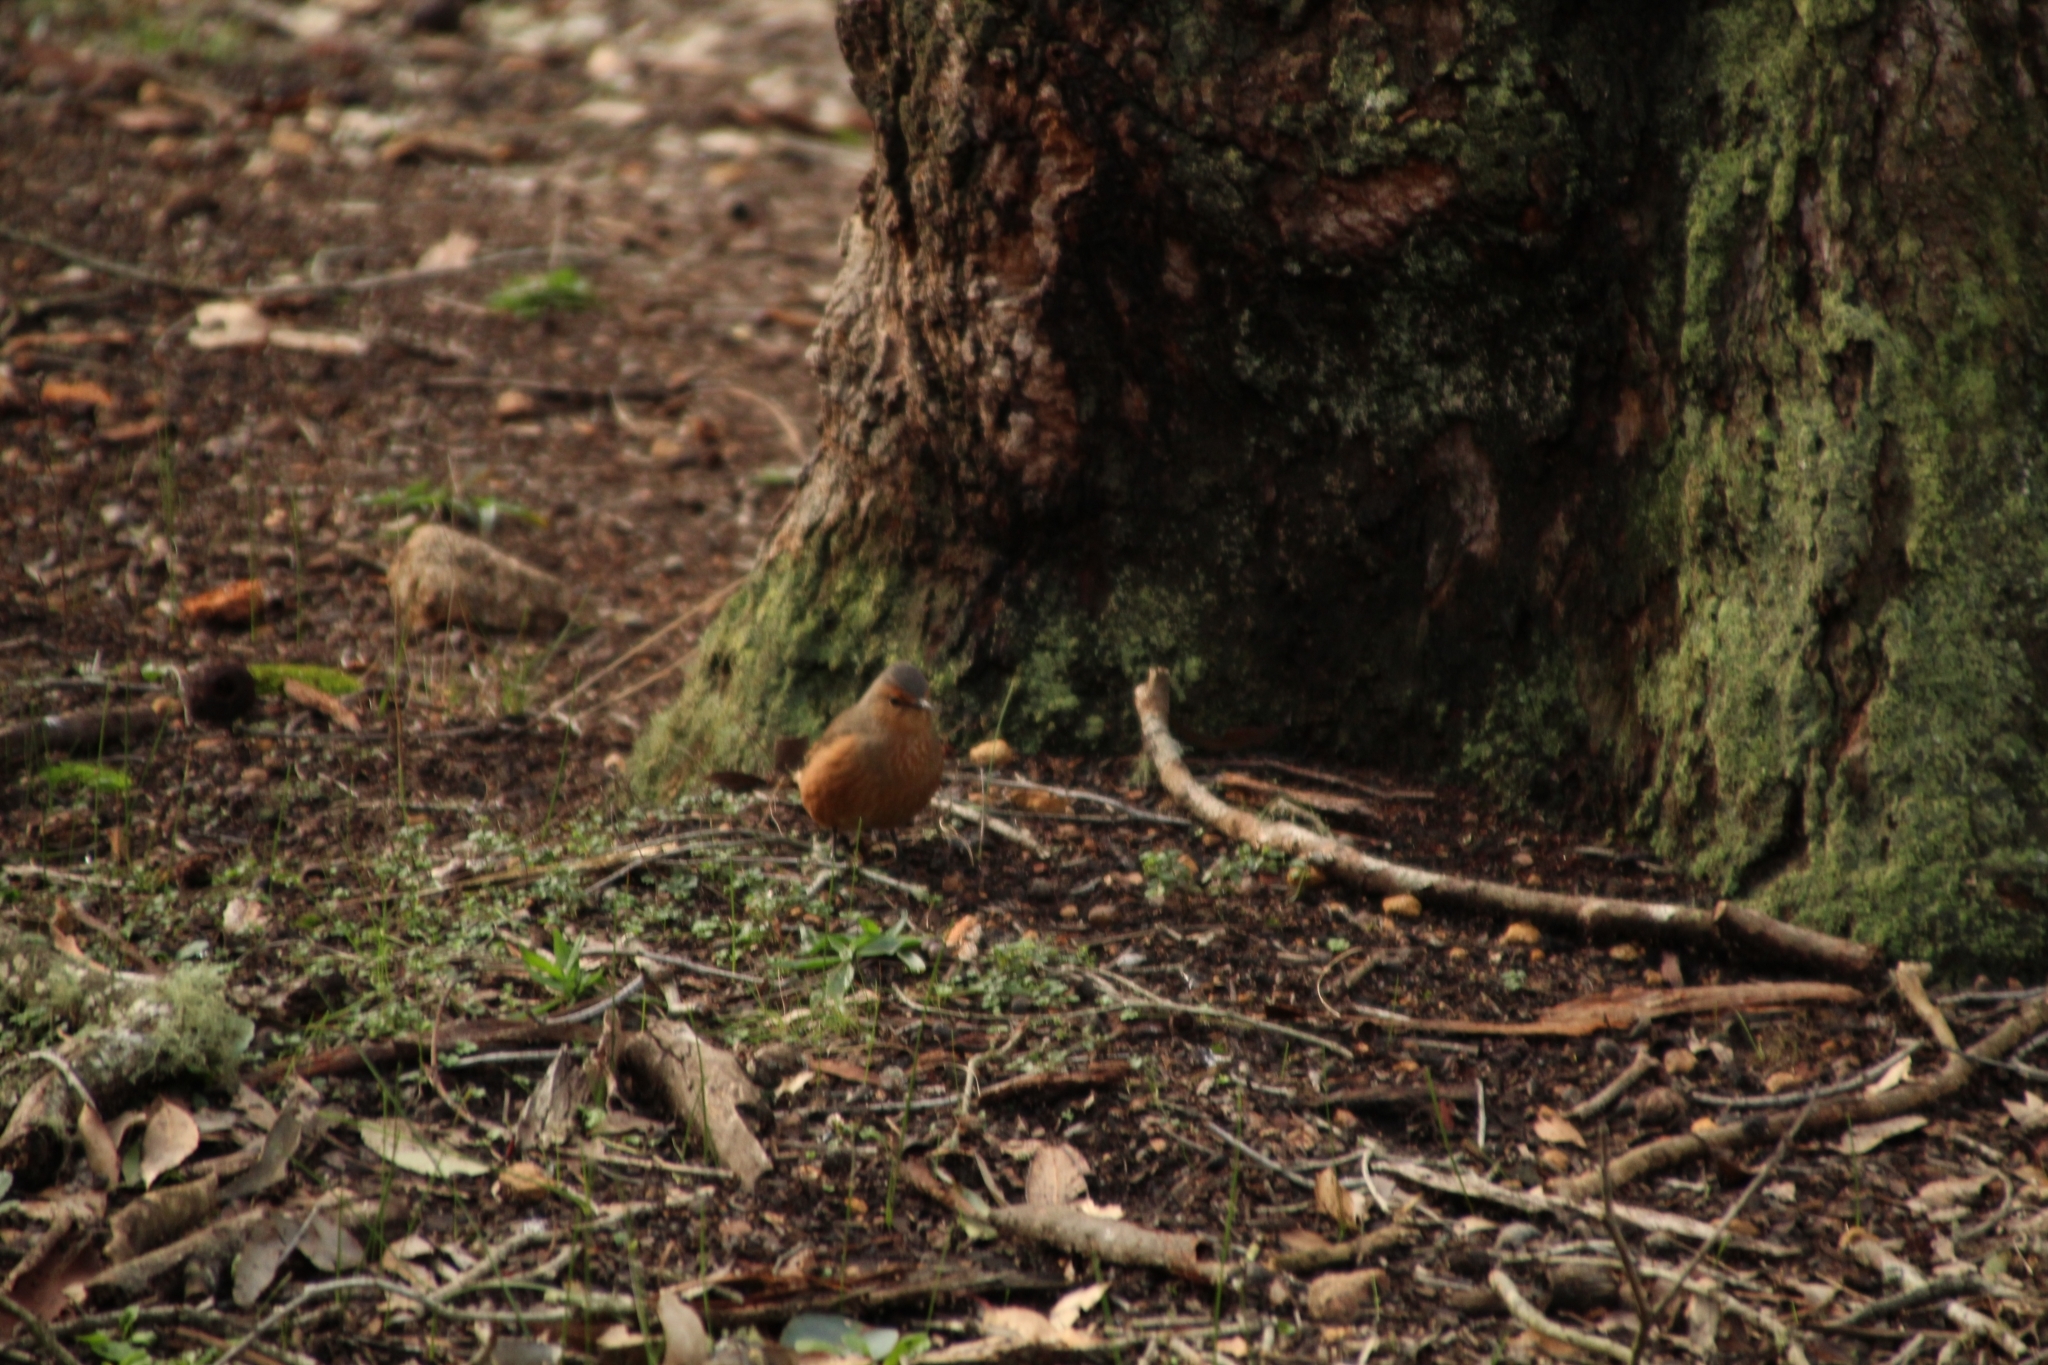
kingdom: Animalia
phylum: Chordata
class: Aves
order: Passeriformes
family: Climacteridae
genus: Climacteris
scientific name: Climacteris rufus
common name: Rufous treecreeper
